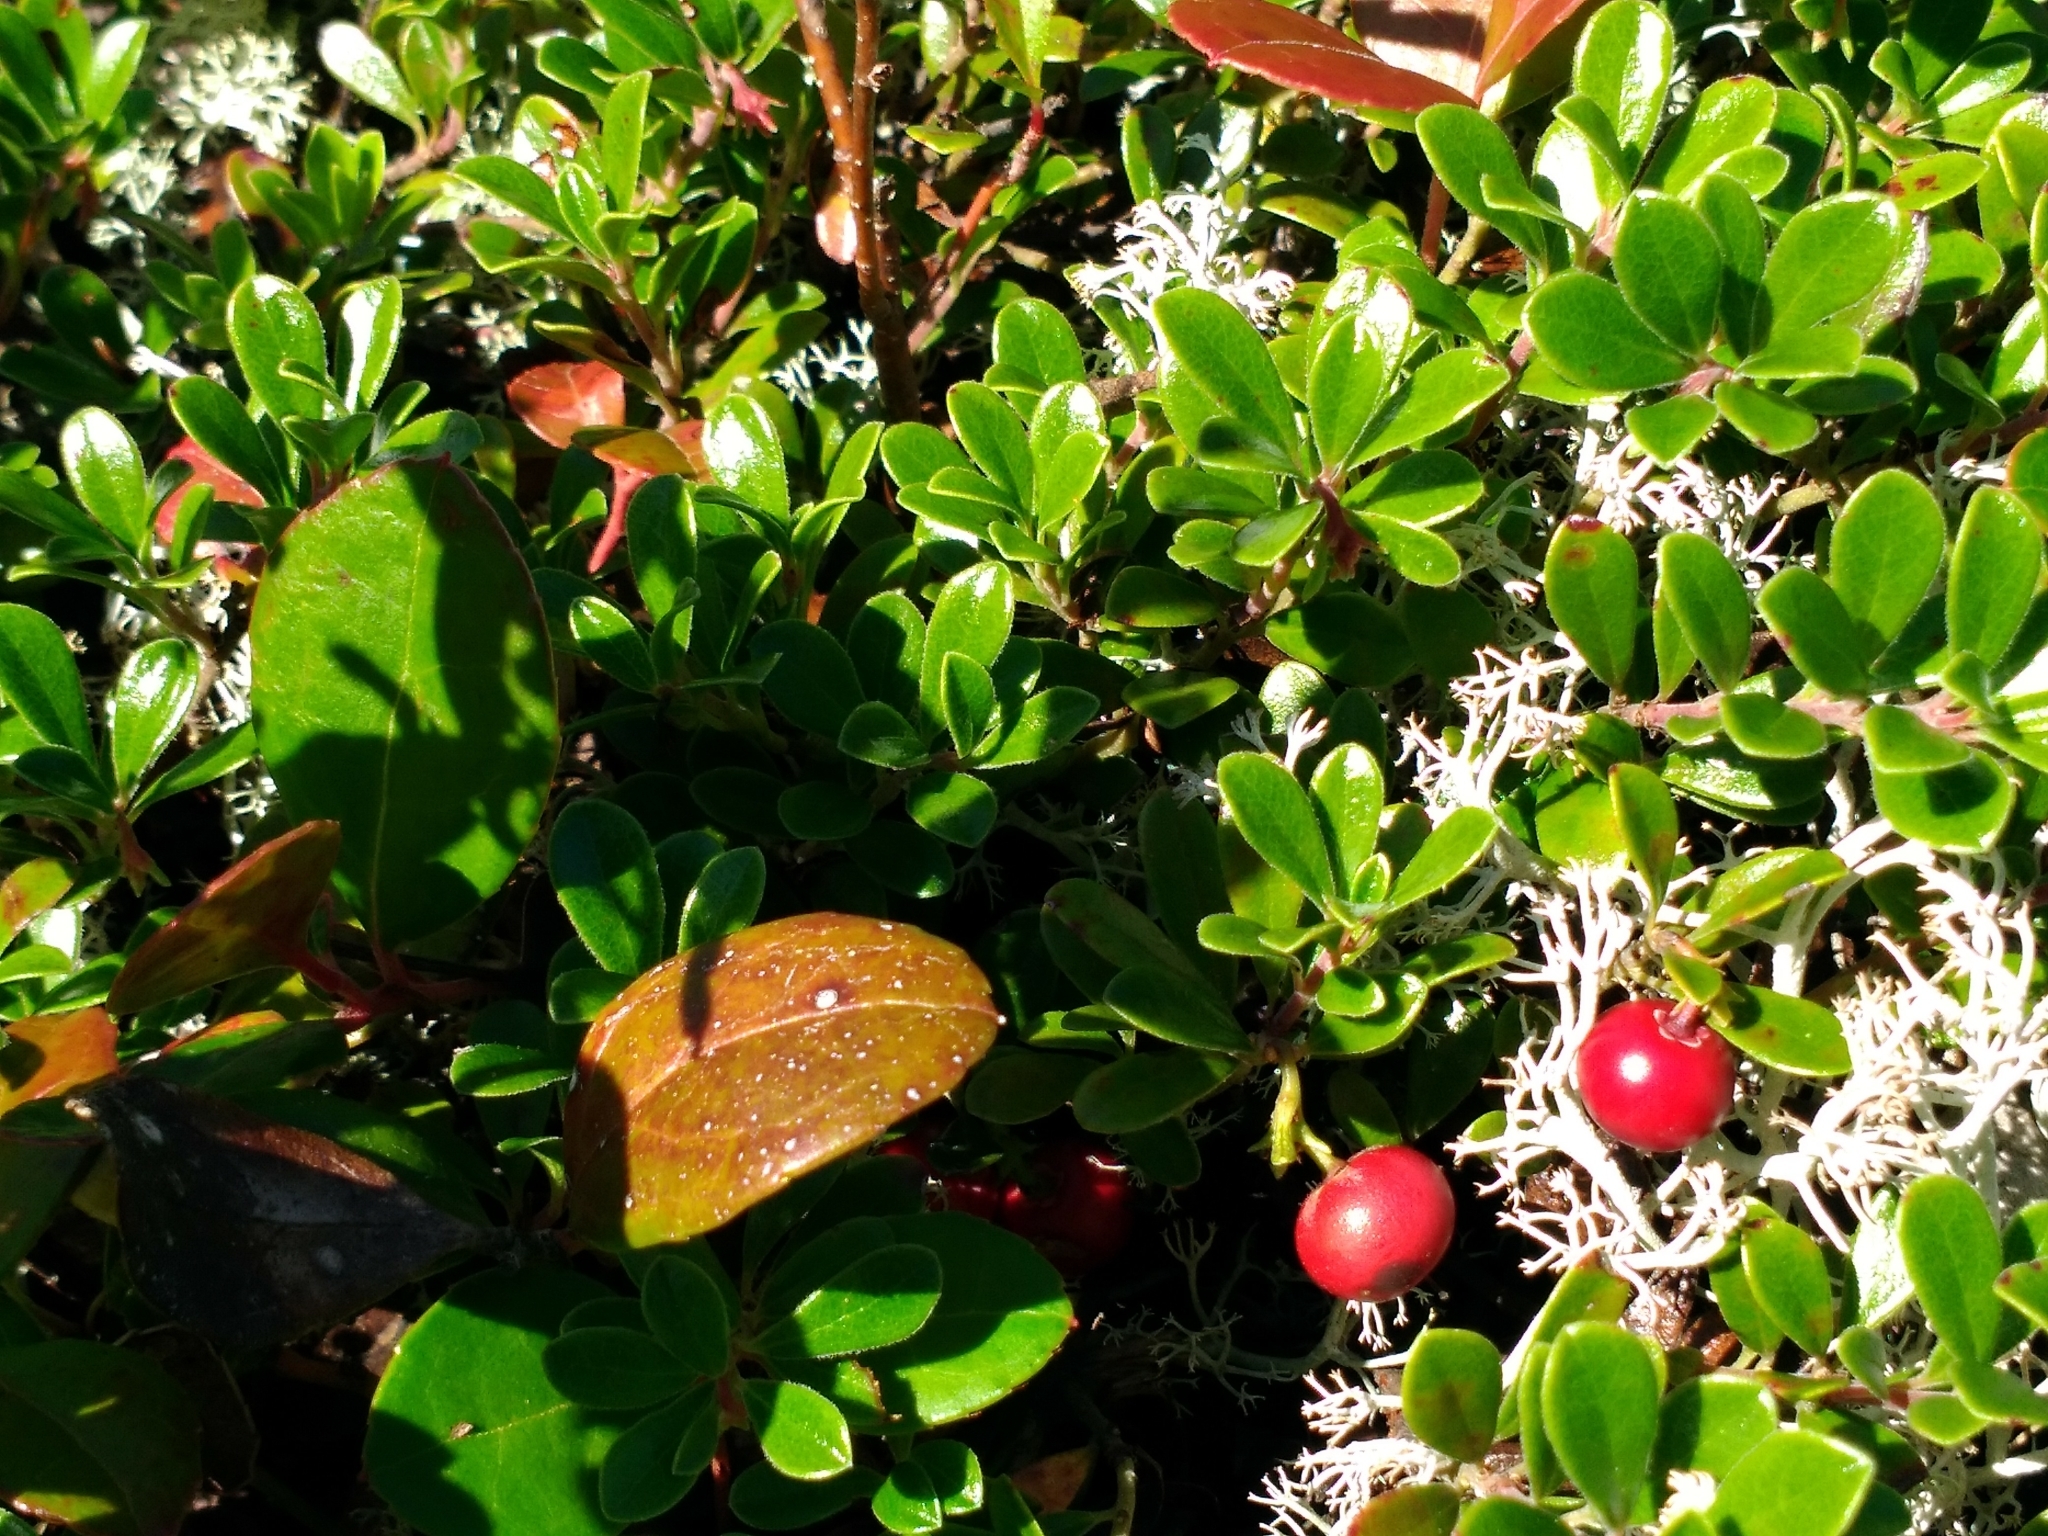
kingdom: Plantae
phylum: Tracheophyta
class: Magnoliopsida
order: Ericales
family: Ericaceae
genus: Arctostaphylos
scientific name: Arctostaphylos uva-ursi
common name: Bearberry
